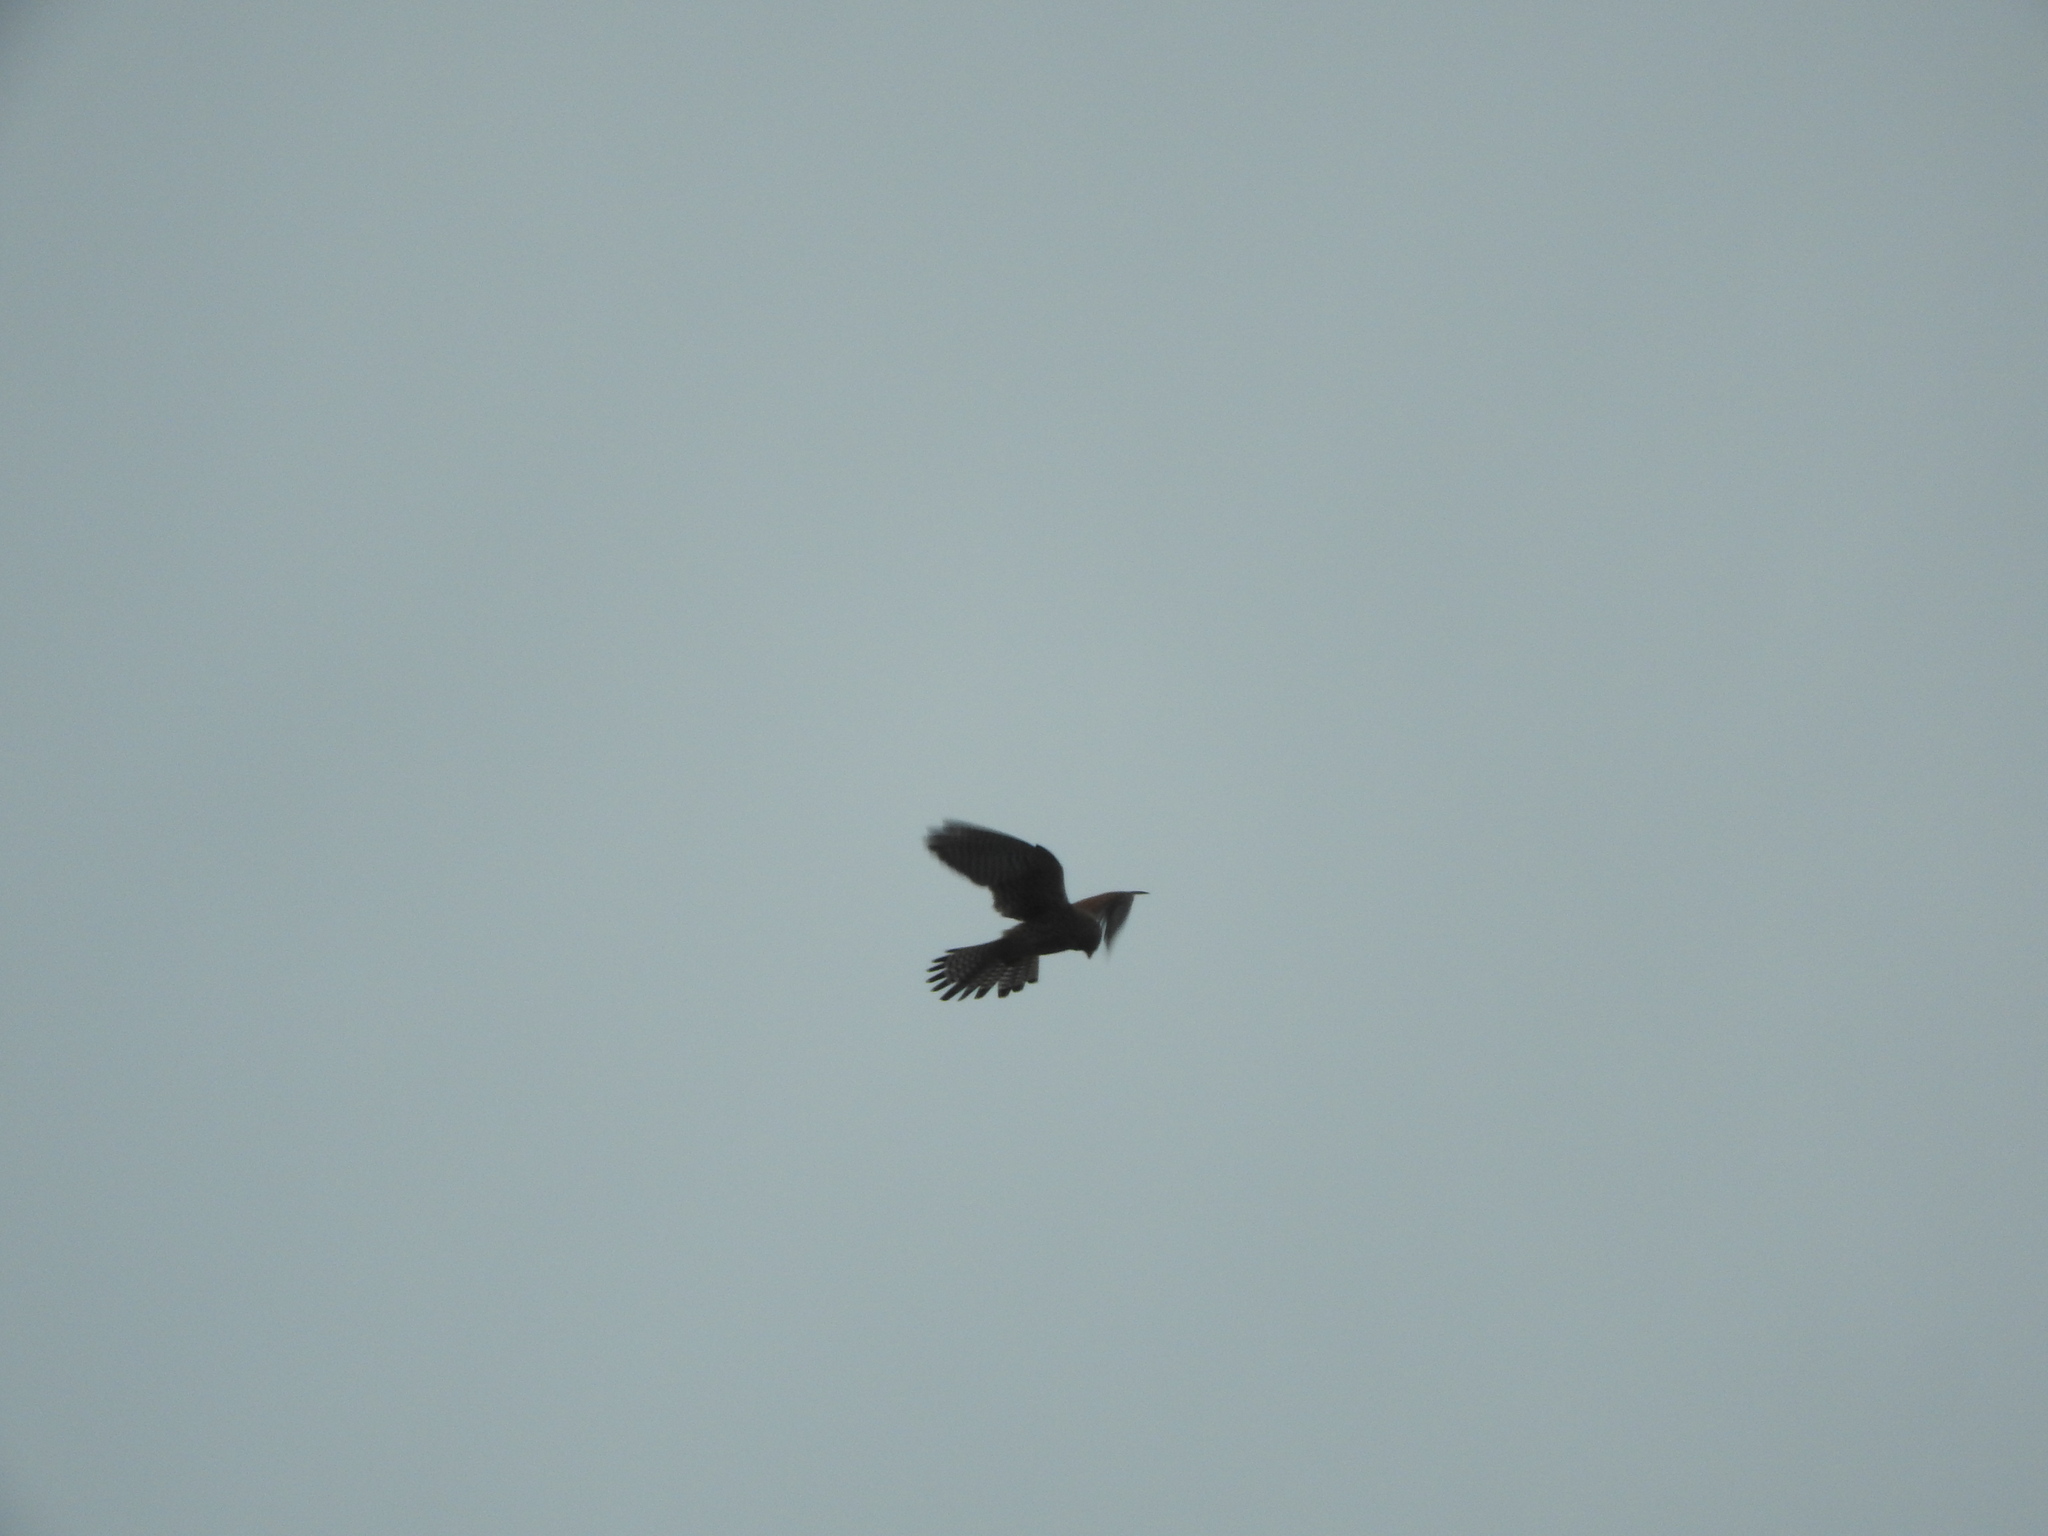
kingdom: Animalia
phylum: Chordata
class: Aves
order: Falconiformes
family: Falconidae
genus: Falco
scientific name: Falco tinnunculus
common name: Common kestrel
